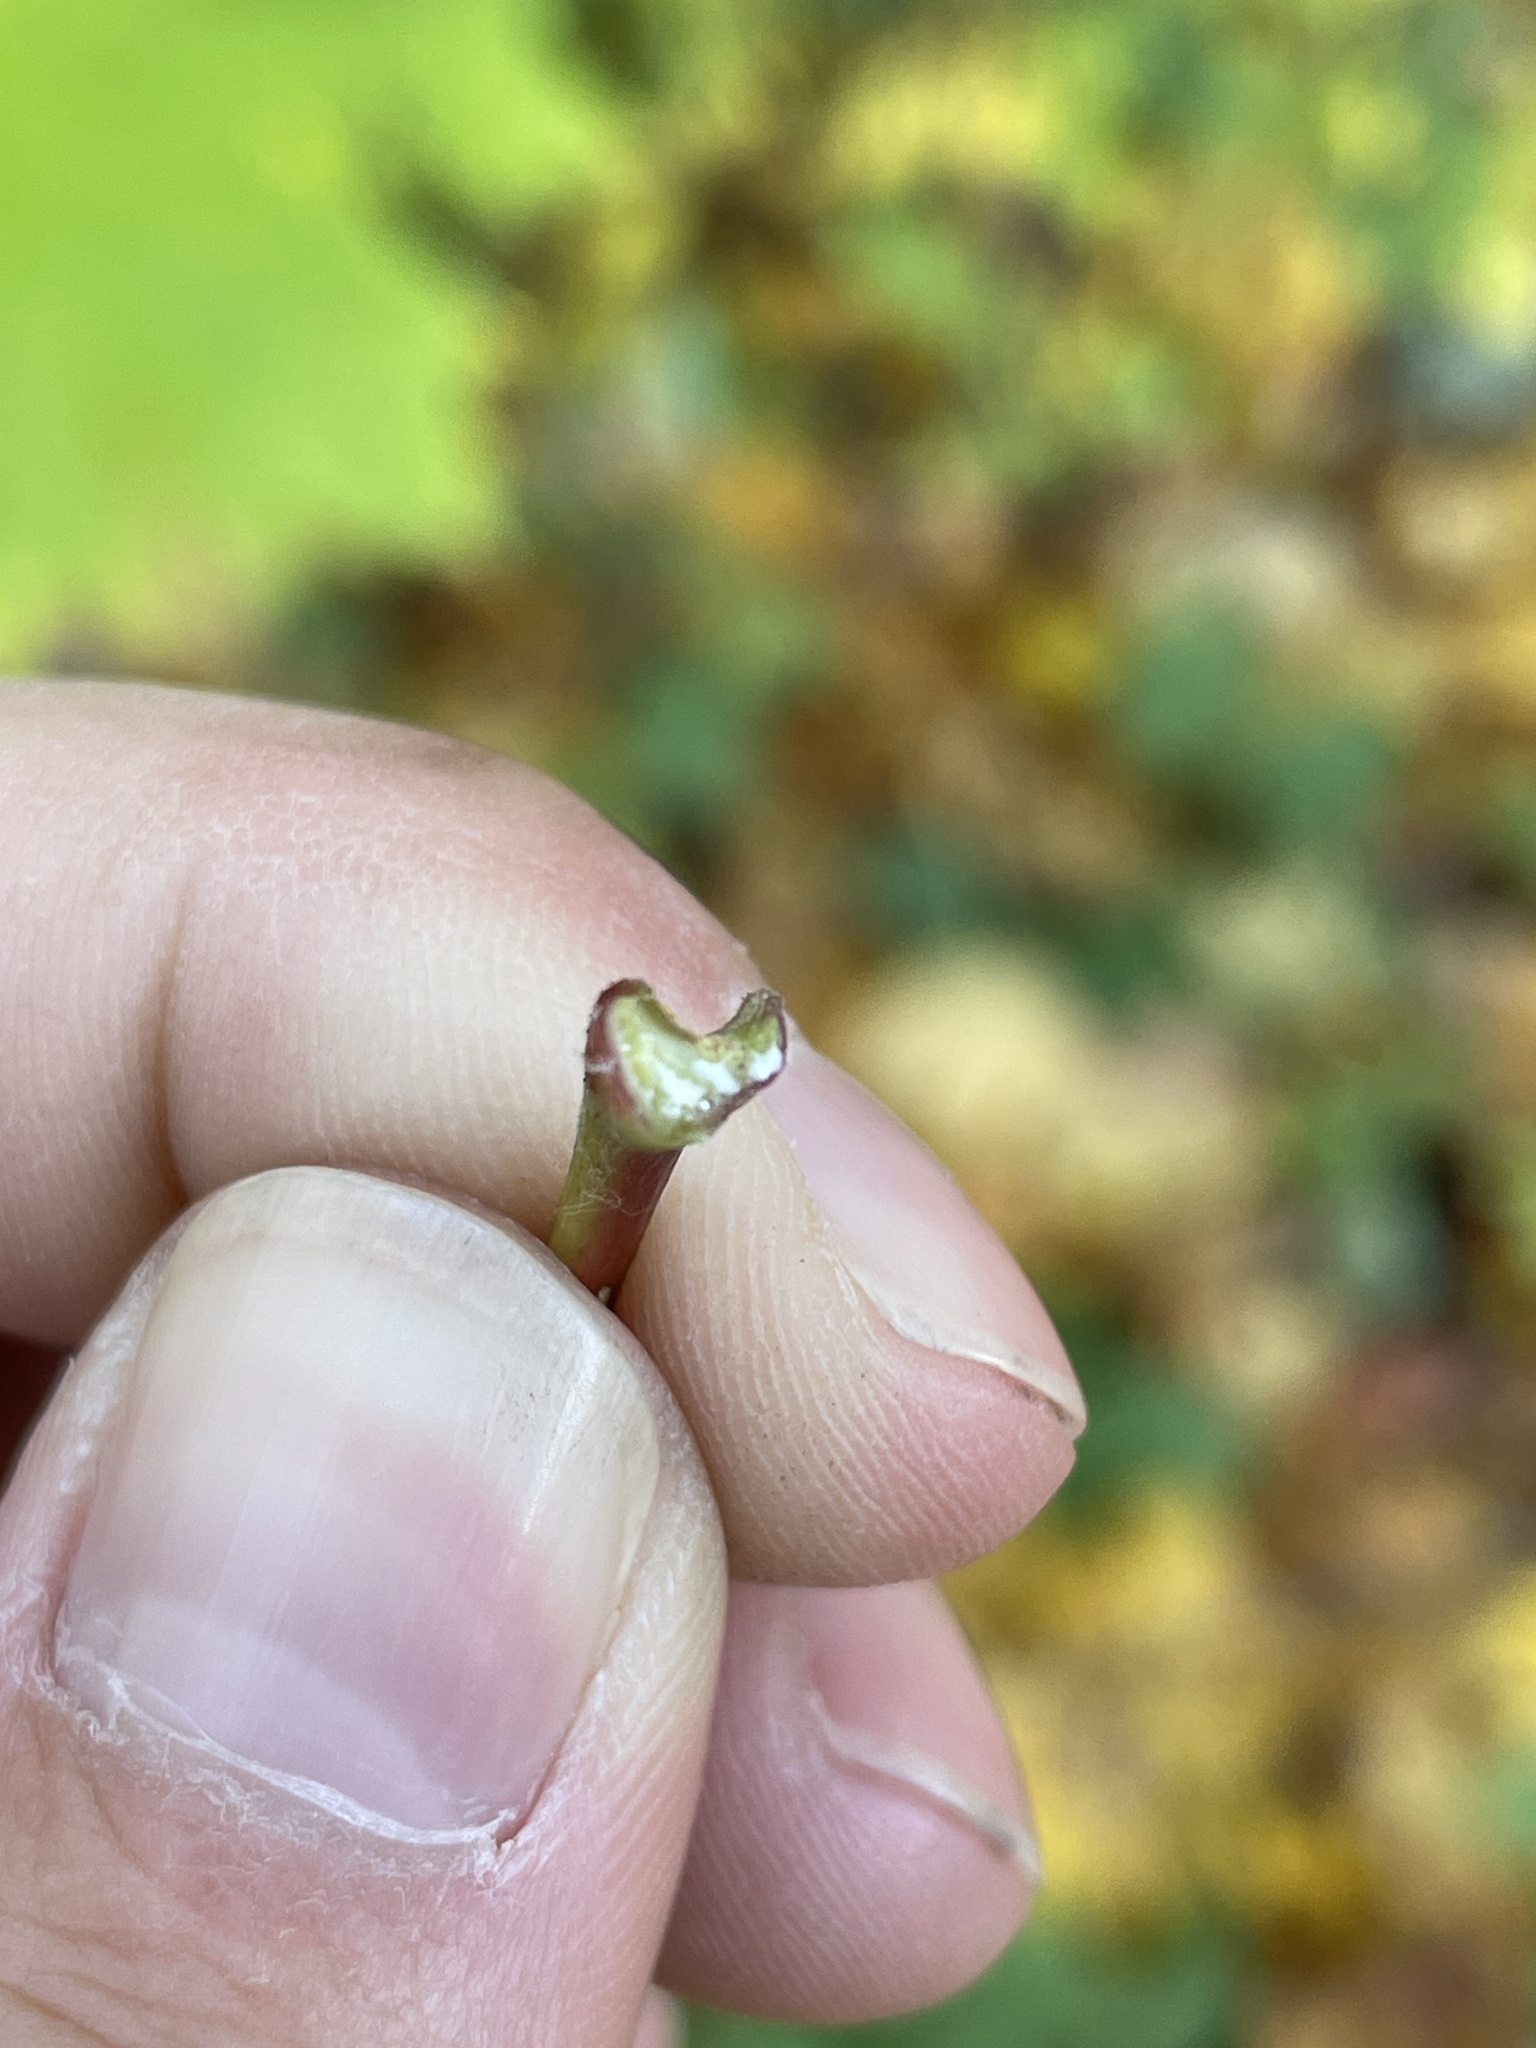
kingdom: Plantae
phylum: Tracheophyta
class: Magnoliopsida
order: Sapindales
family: Sapindaceae
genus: Acer
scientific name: Acer platanoides
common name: Norway maple
